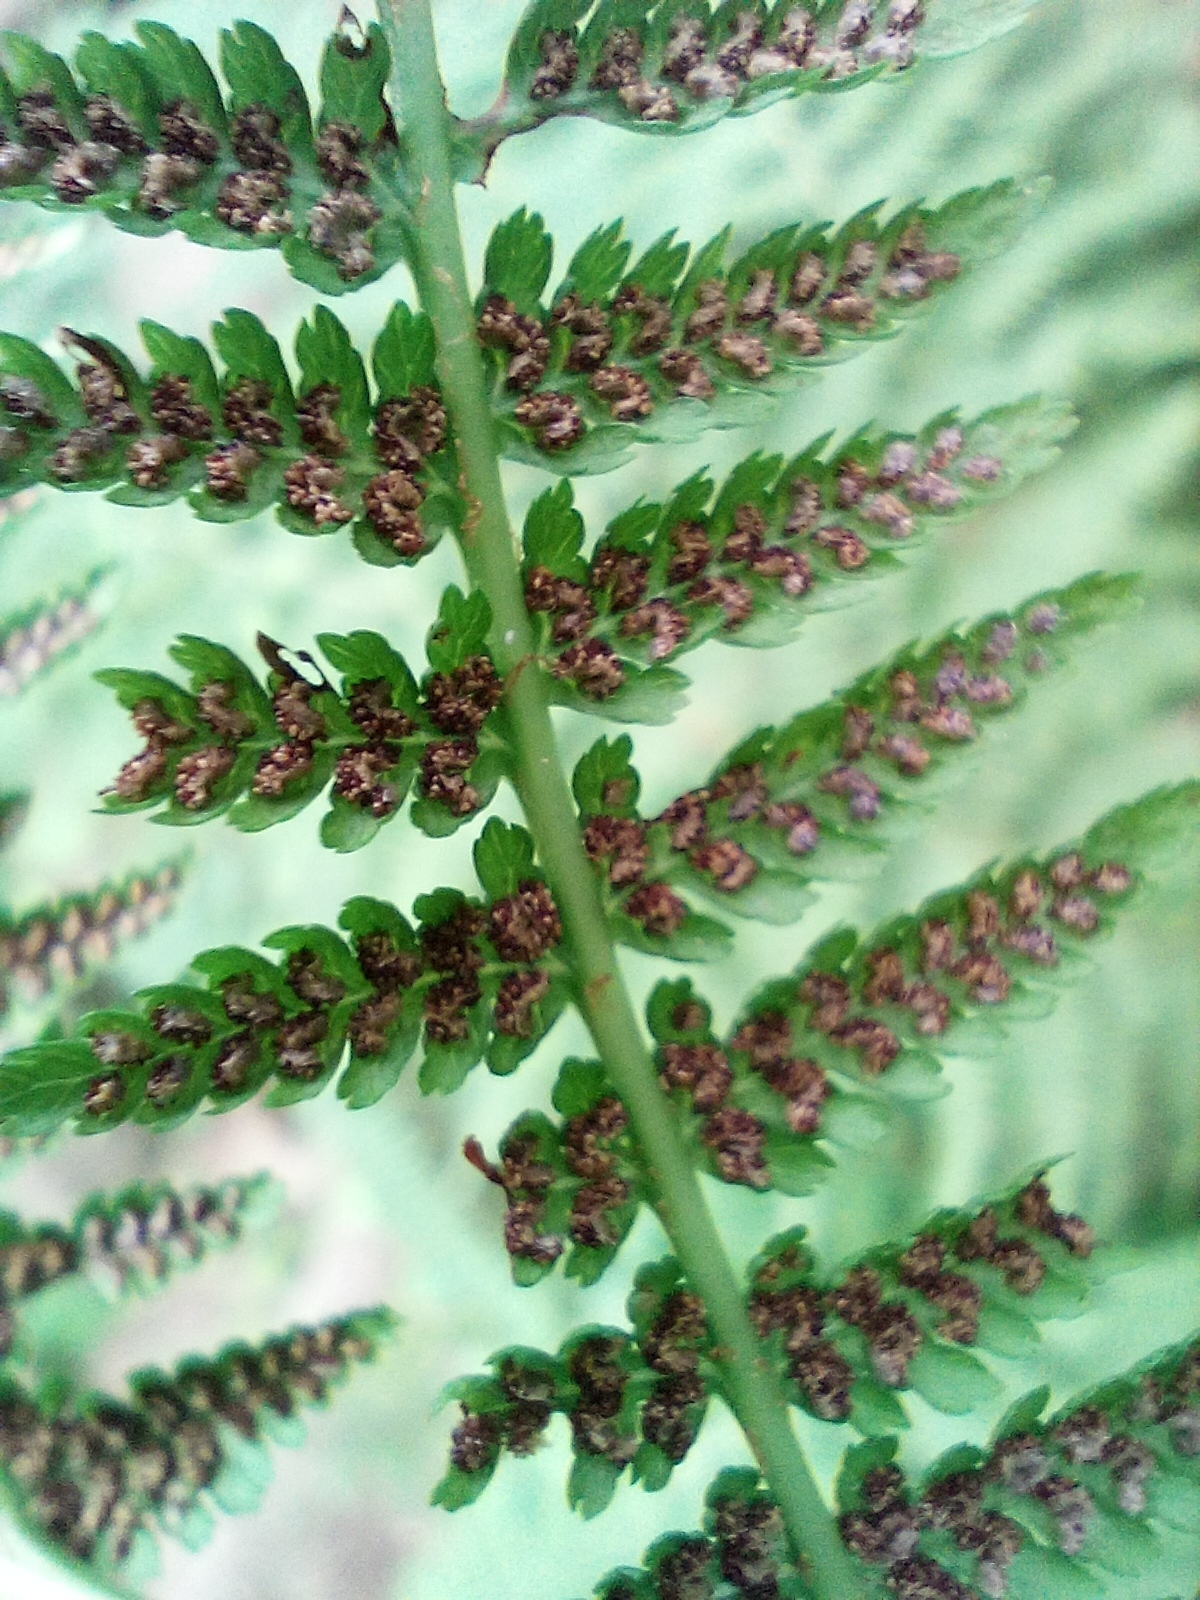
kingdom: Plantae
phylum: Tracheophyta
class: Polypodiopsida
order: Polypodiales
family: Athyriaceae
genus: Athyrium
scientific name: Athyrium filix-femina
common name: Lady fern
